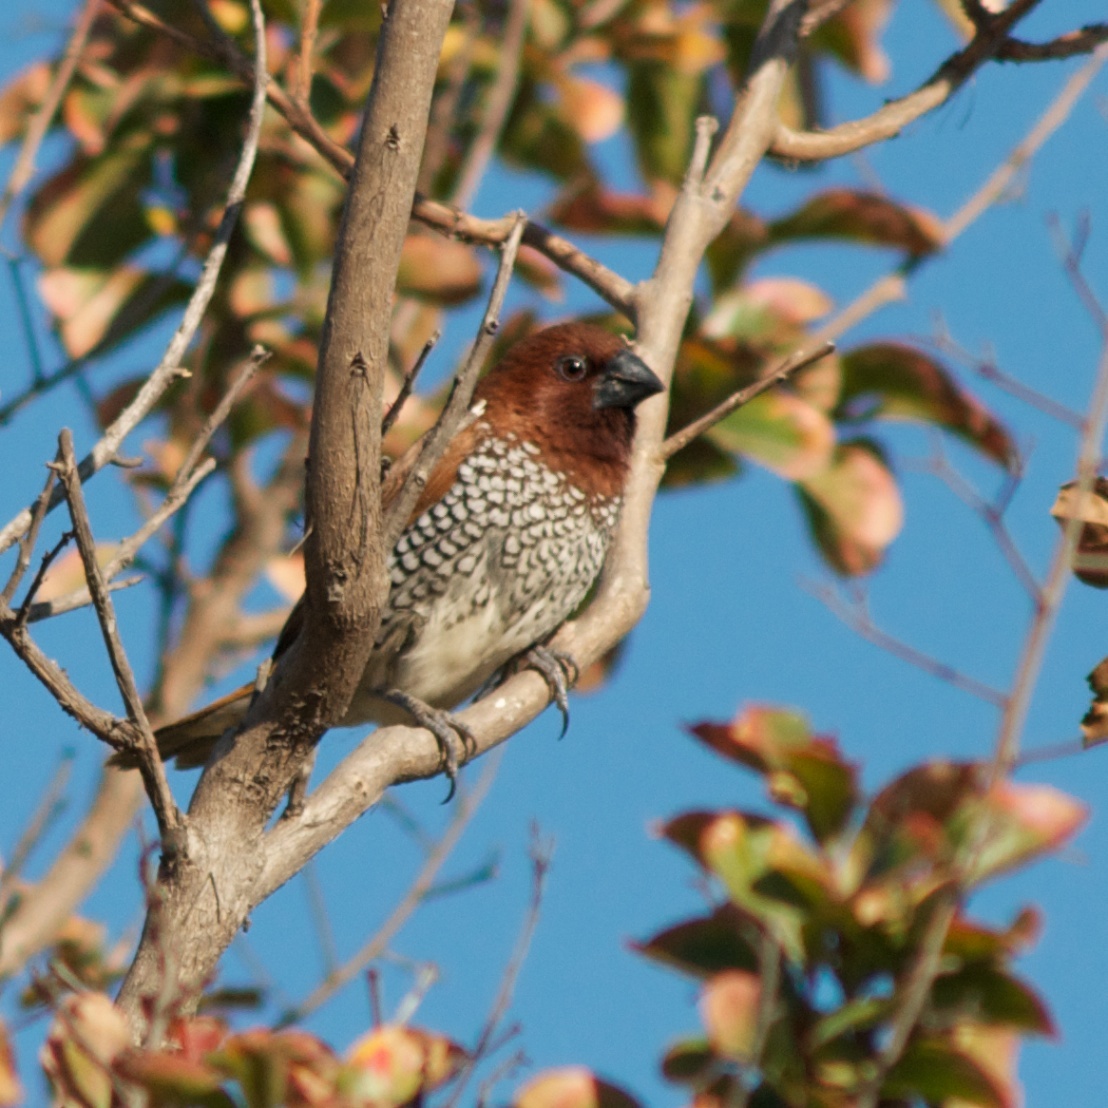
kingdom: Animalia
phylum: Chordata
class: Aves
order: Passeriformes
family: Estrildidae
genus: Lonchura
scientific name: Lonchura punctulata
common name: Scaly-breasted munia
